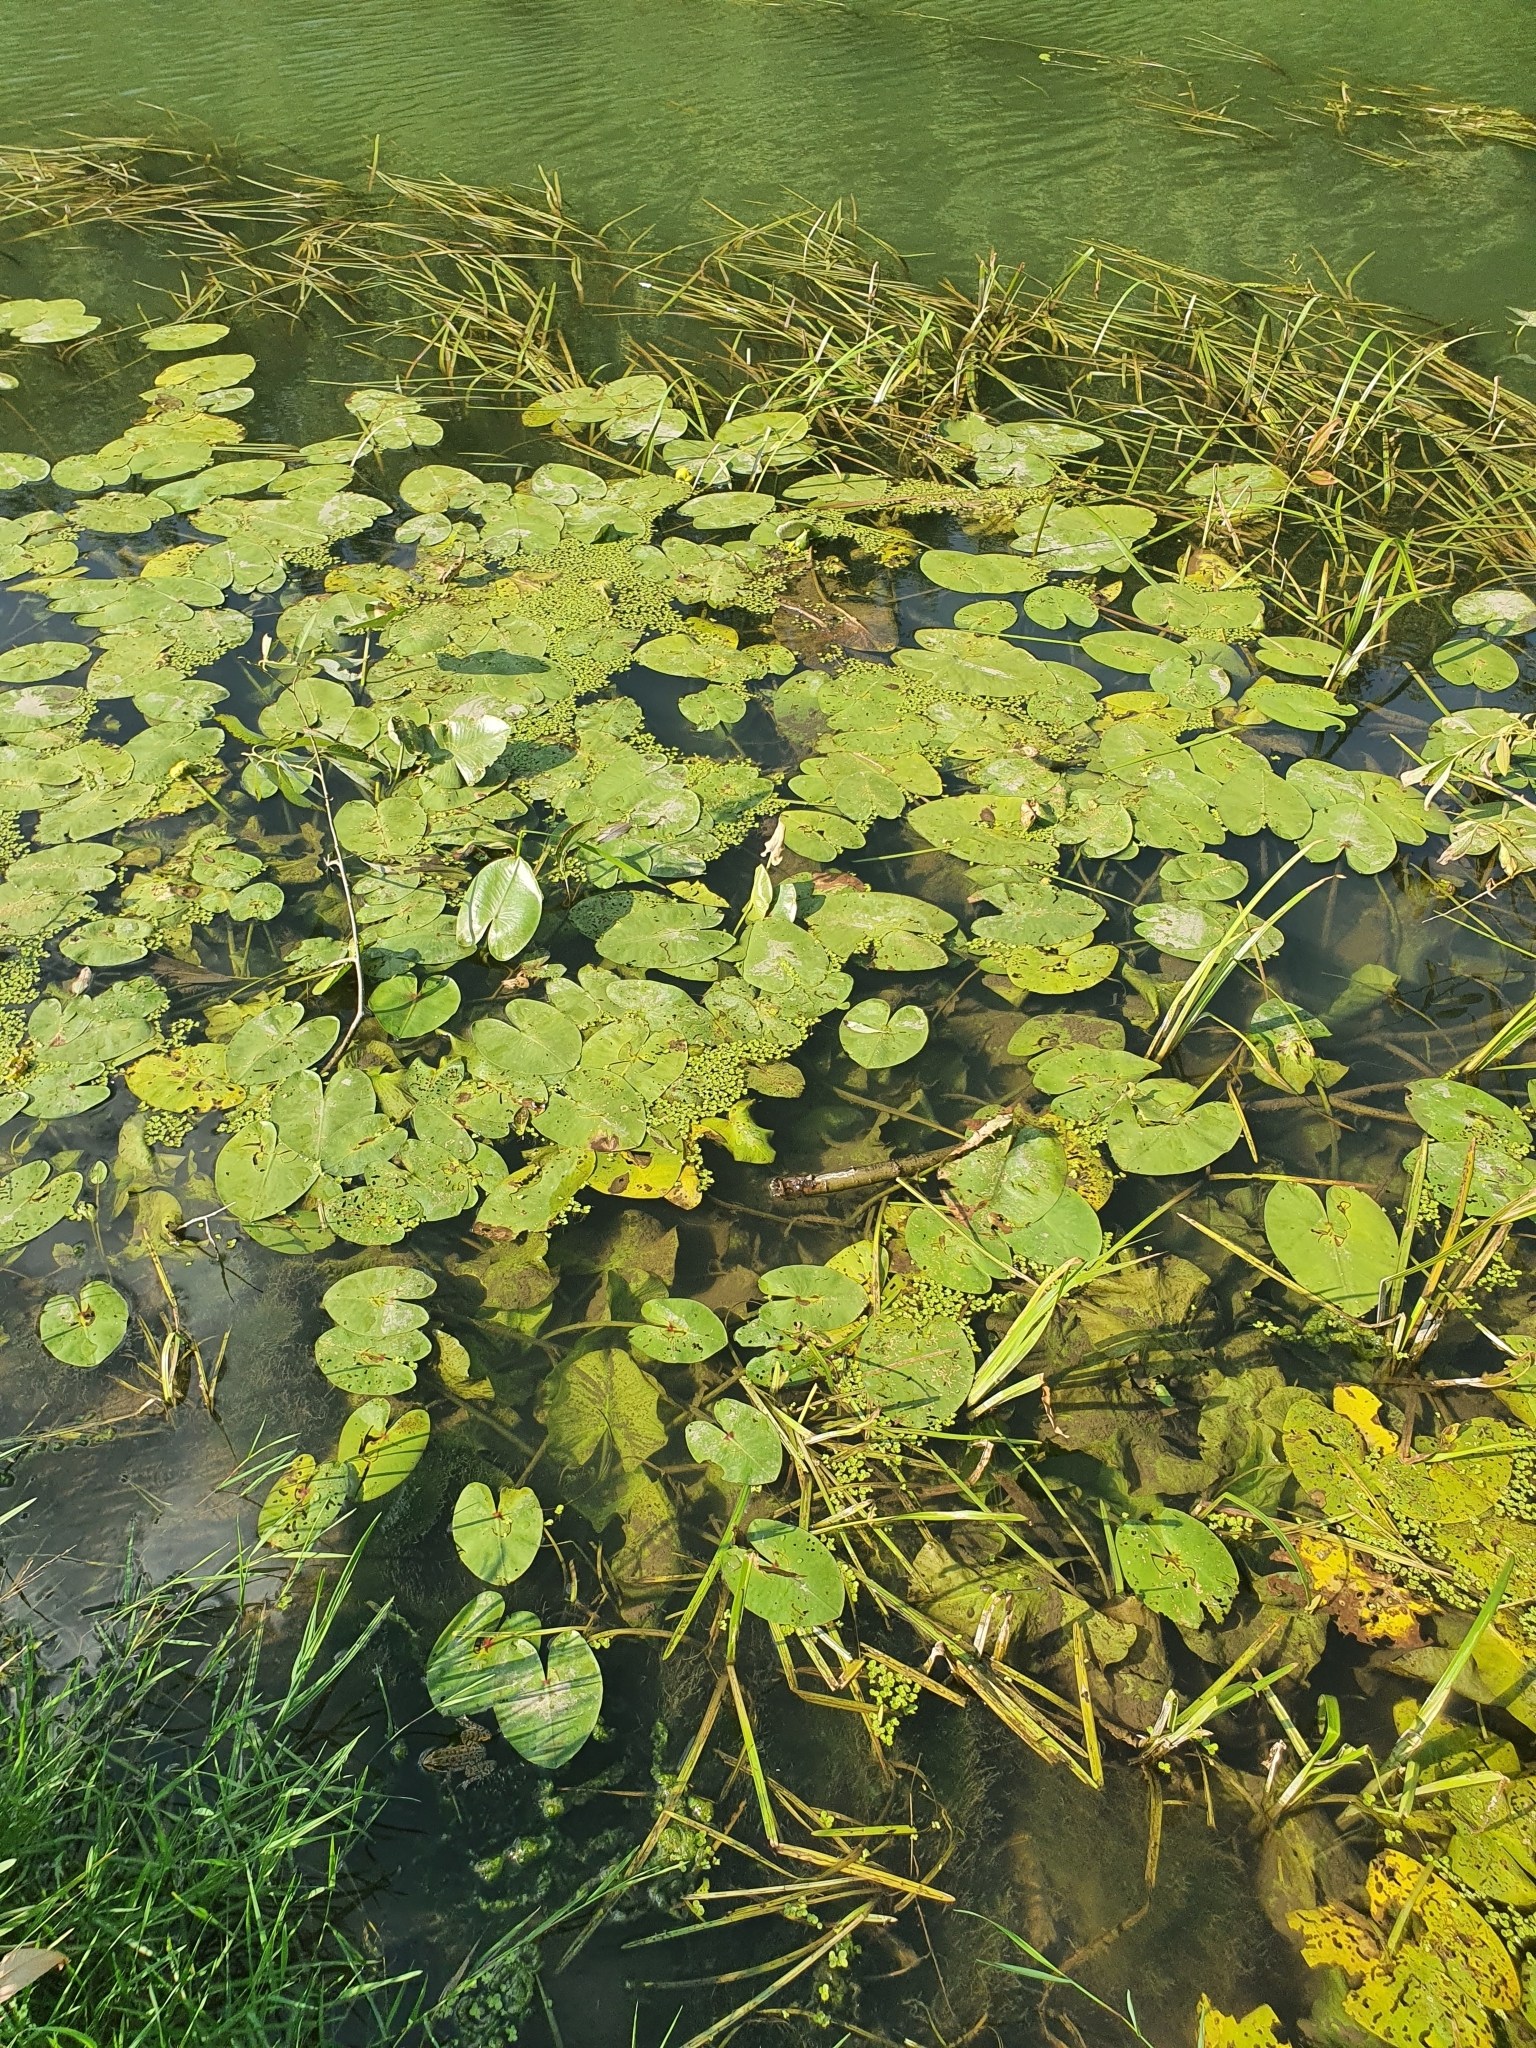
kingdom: Plantae
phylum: Tracheophyta
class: Magnoliopsida
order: Nymphaeales
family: Nymphaeaceae
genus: Nuphar
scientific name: Nuphar lutea
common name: Yellow water-lily
